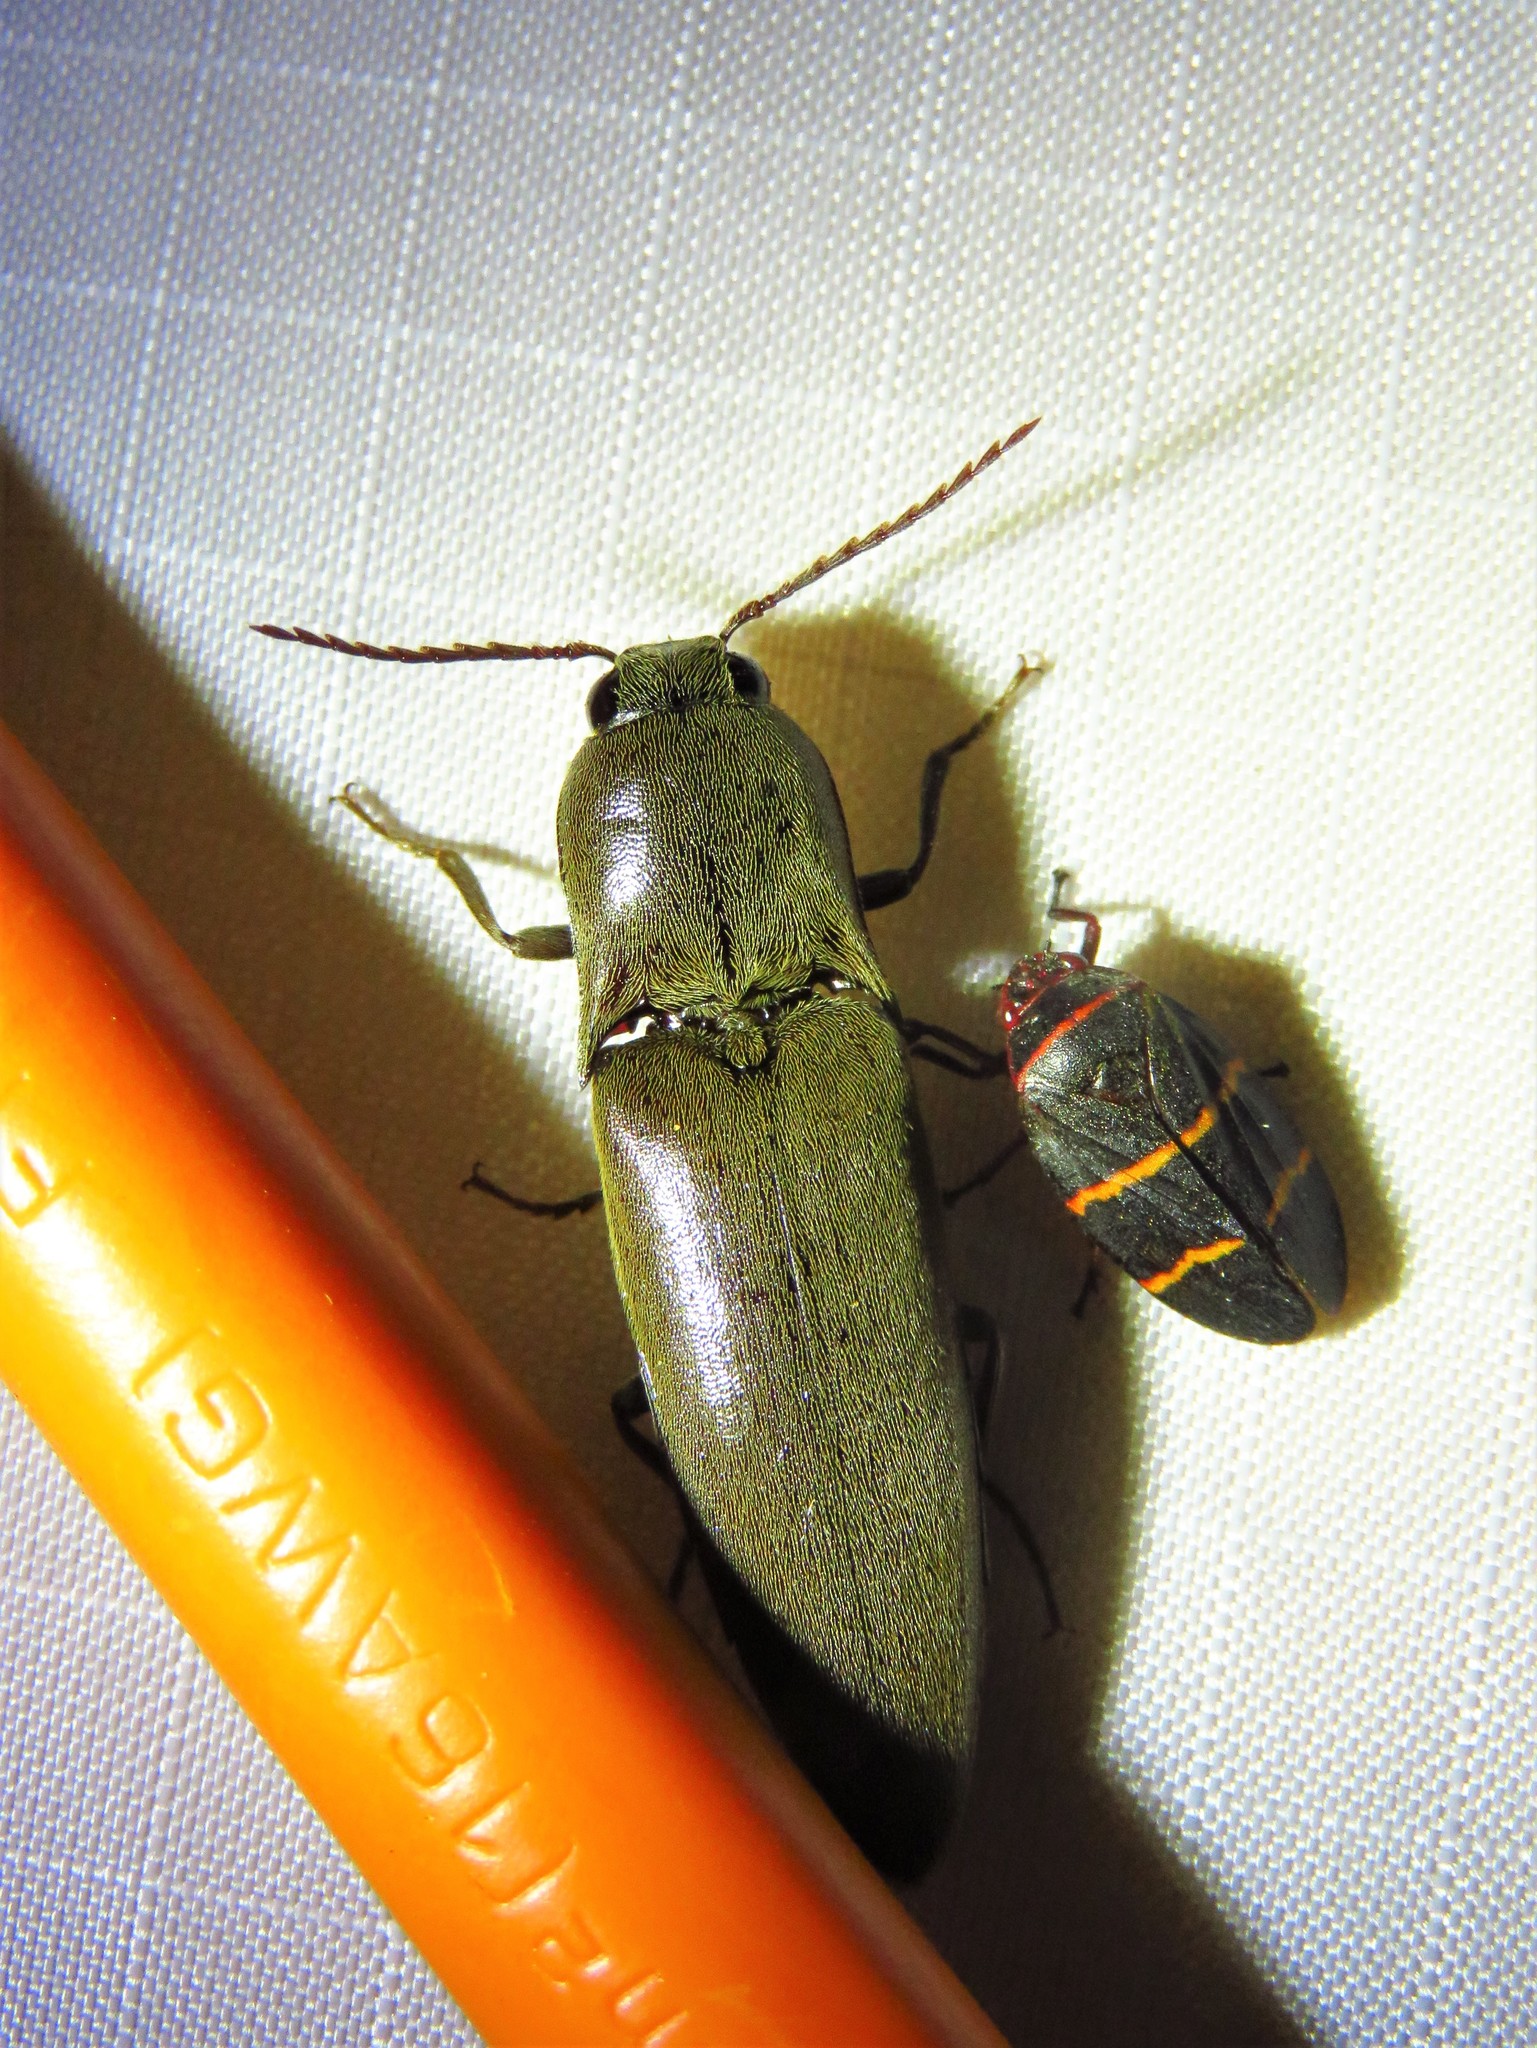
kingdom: Animalia
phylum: Arthropoda
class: Insecta
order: Coleoptera
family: Elateridae
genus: Orthostethus
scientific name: Orthostethus infuscatus
